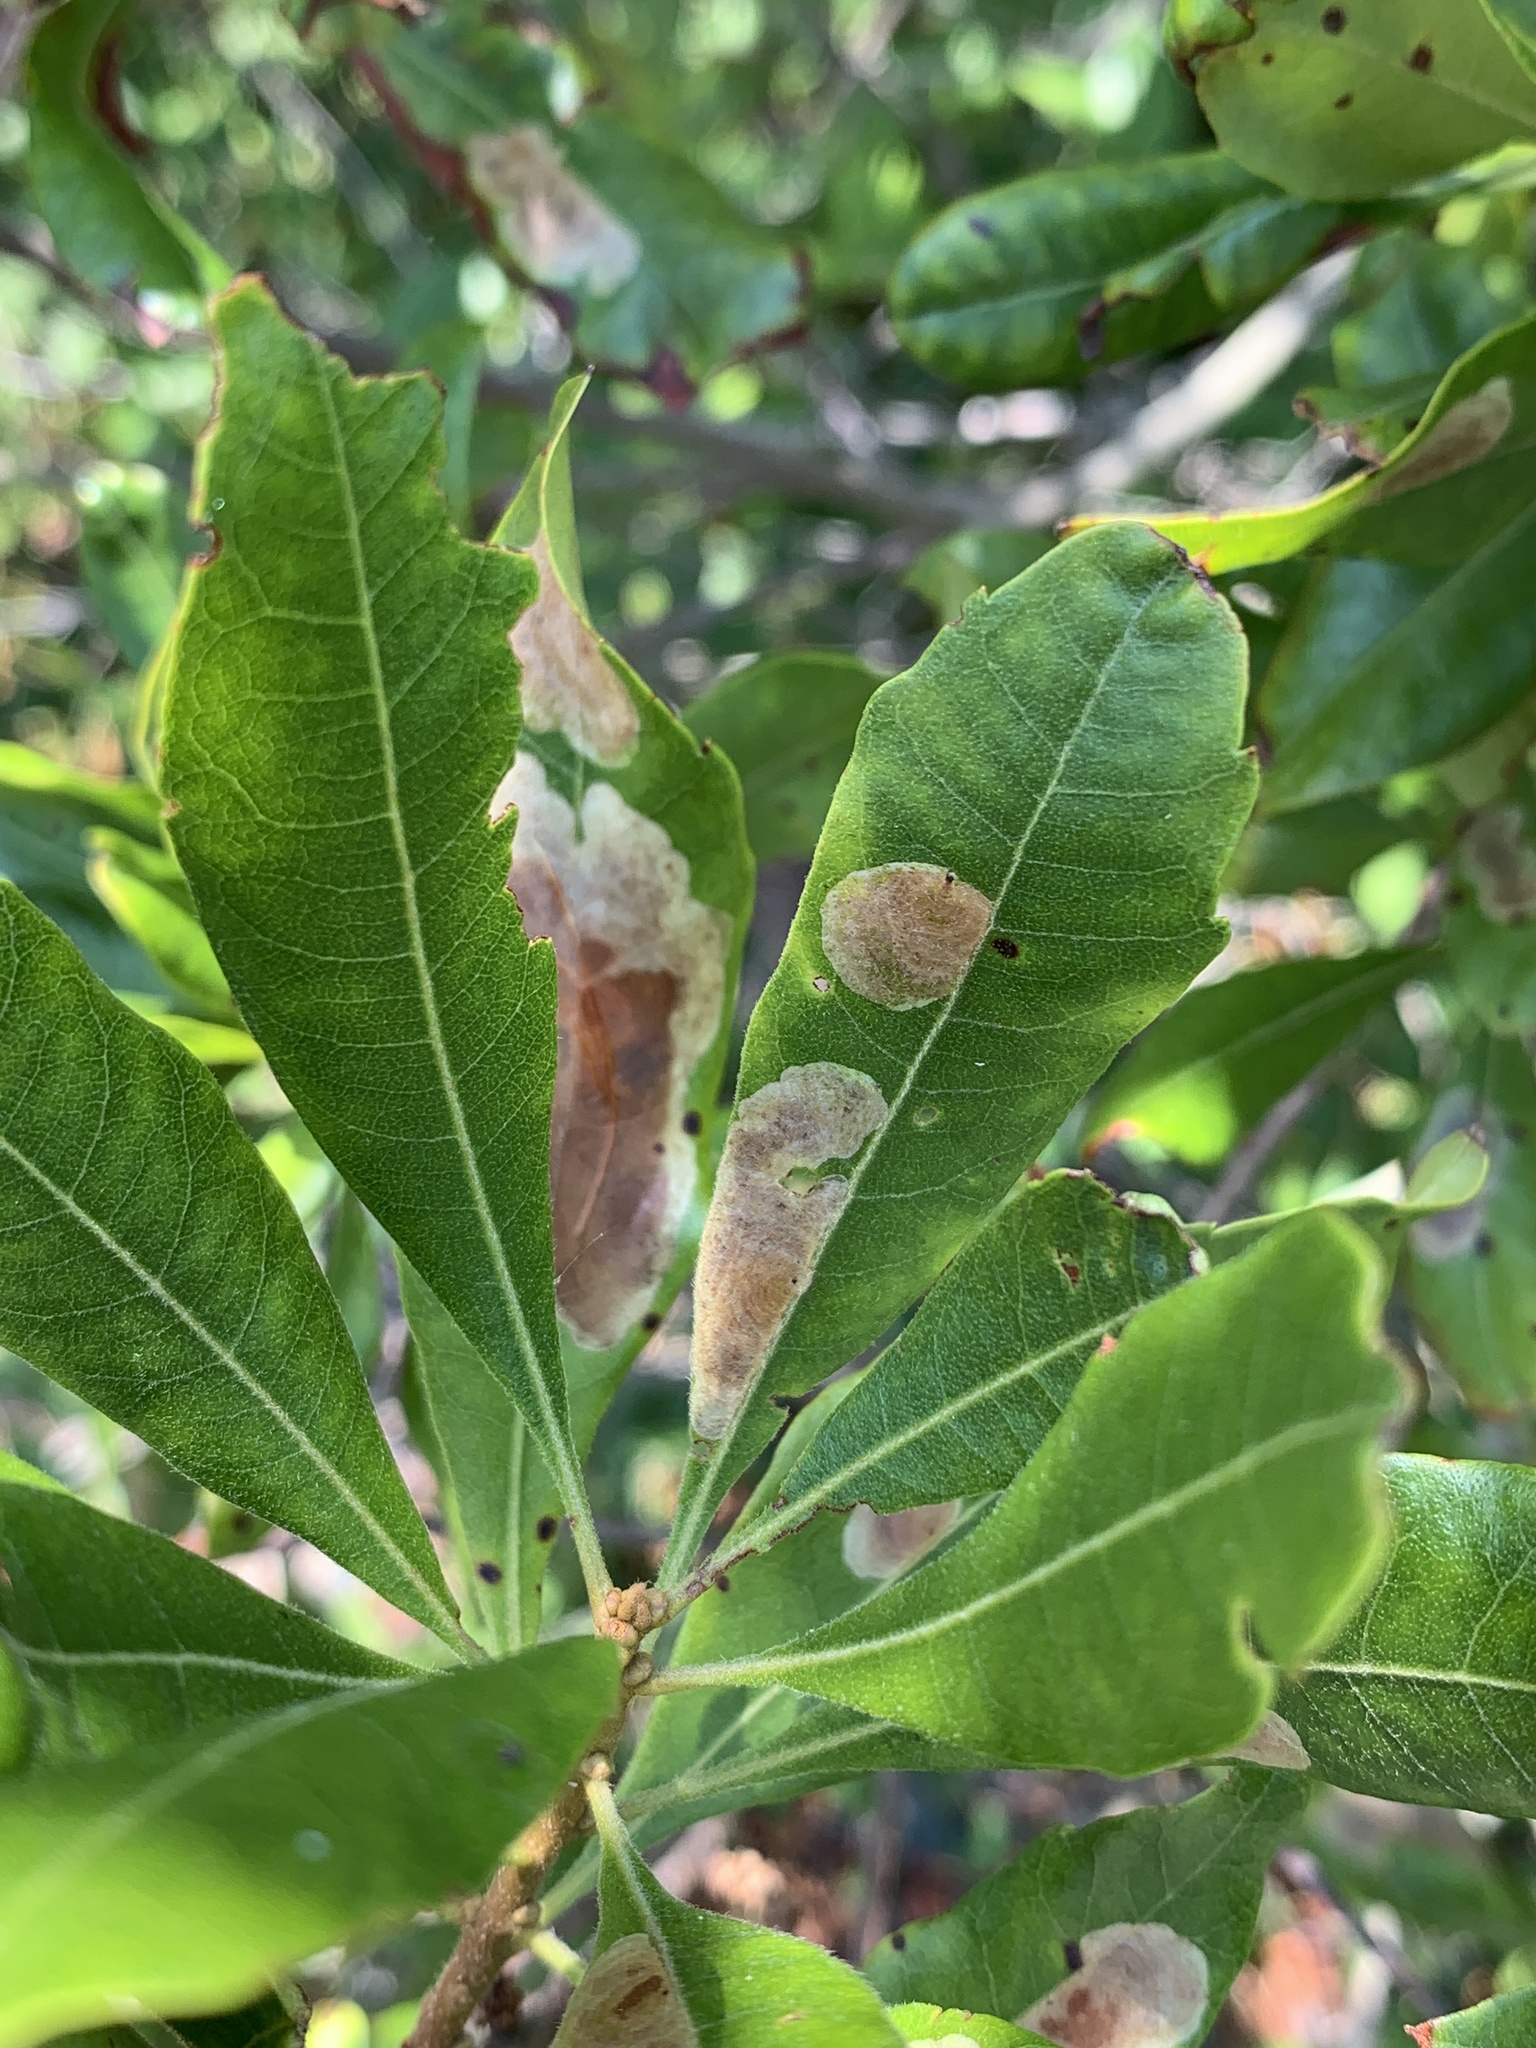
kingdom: Animalia
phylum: Arthropoda
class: Insecta
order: Lepidoptera
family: Gracillariidae
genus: Cameraria
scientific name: Cameraria picturatella
